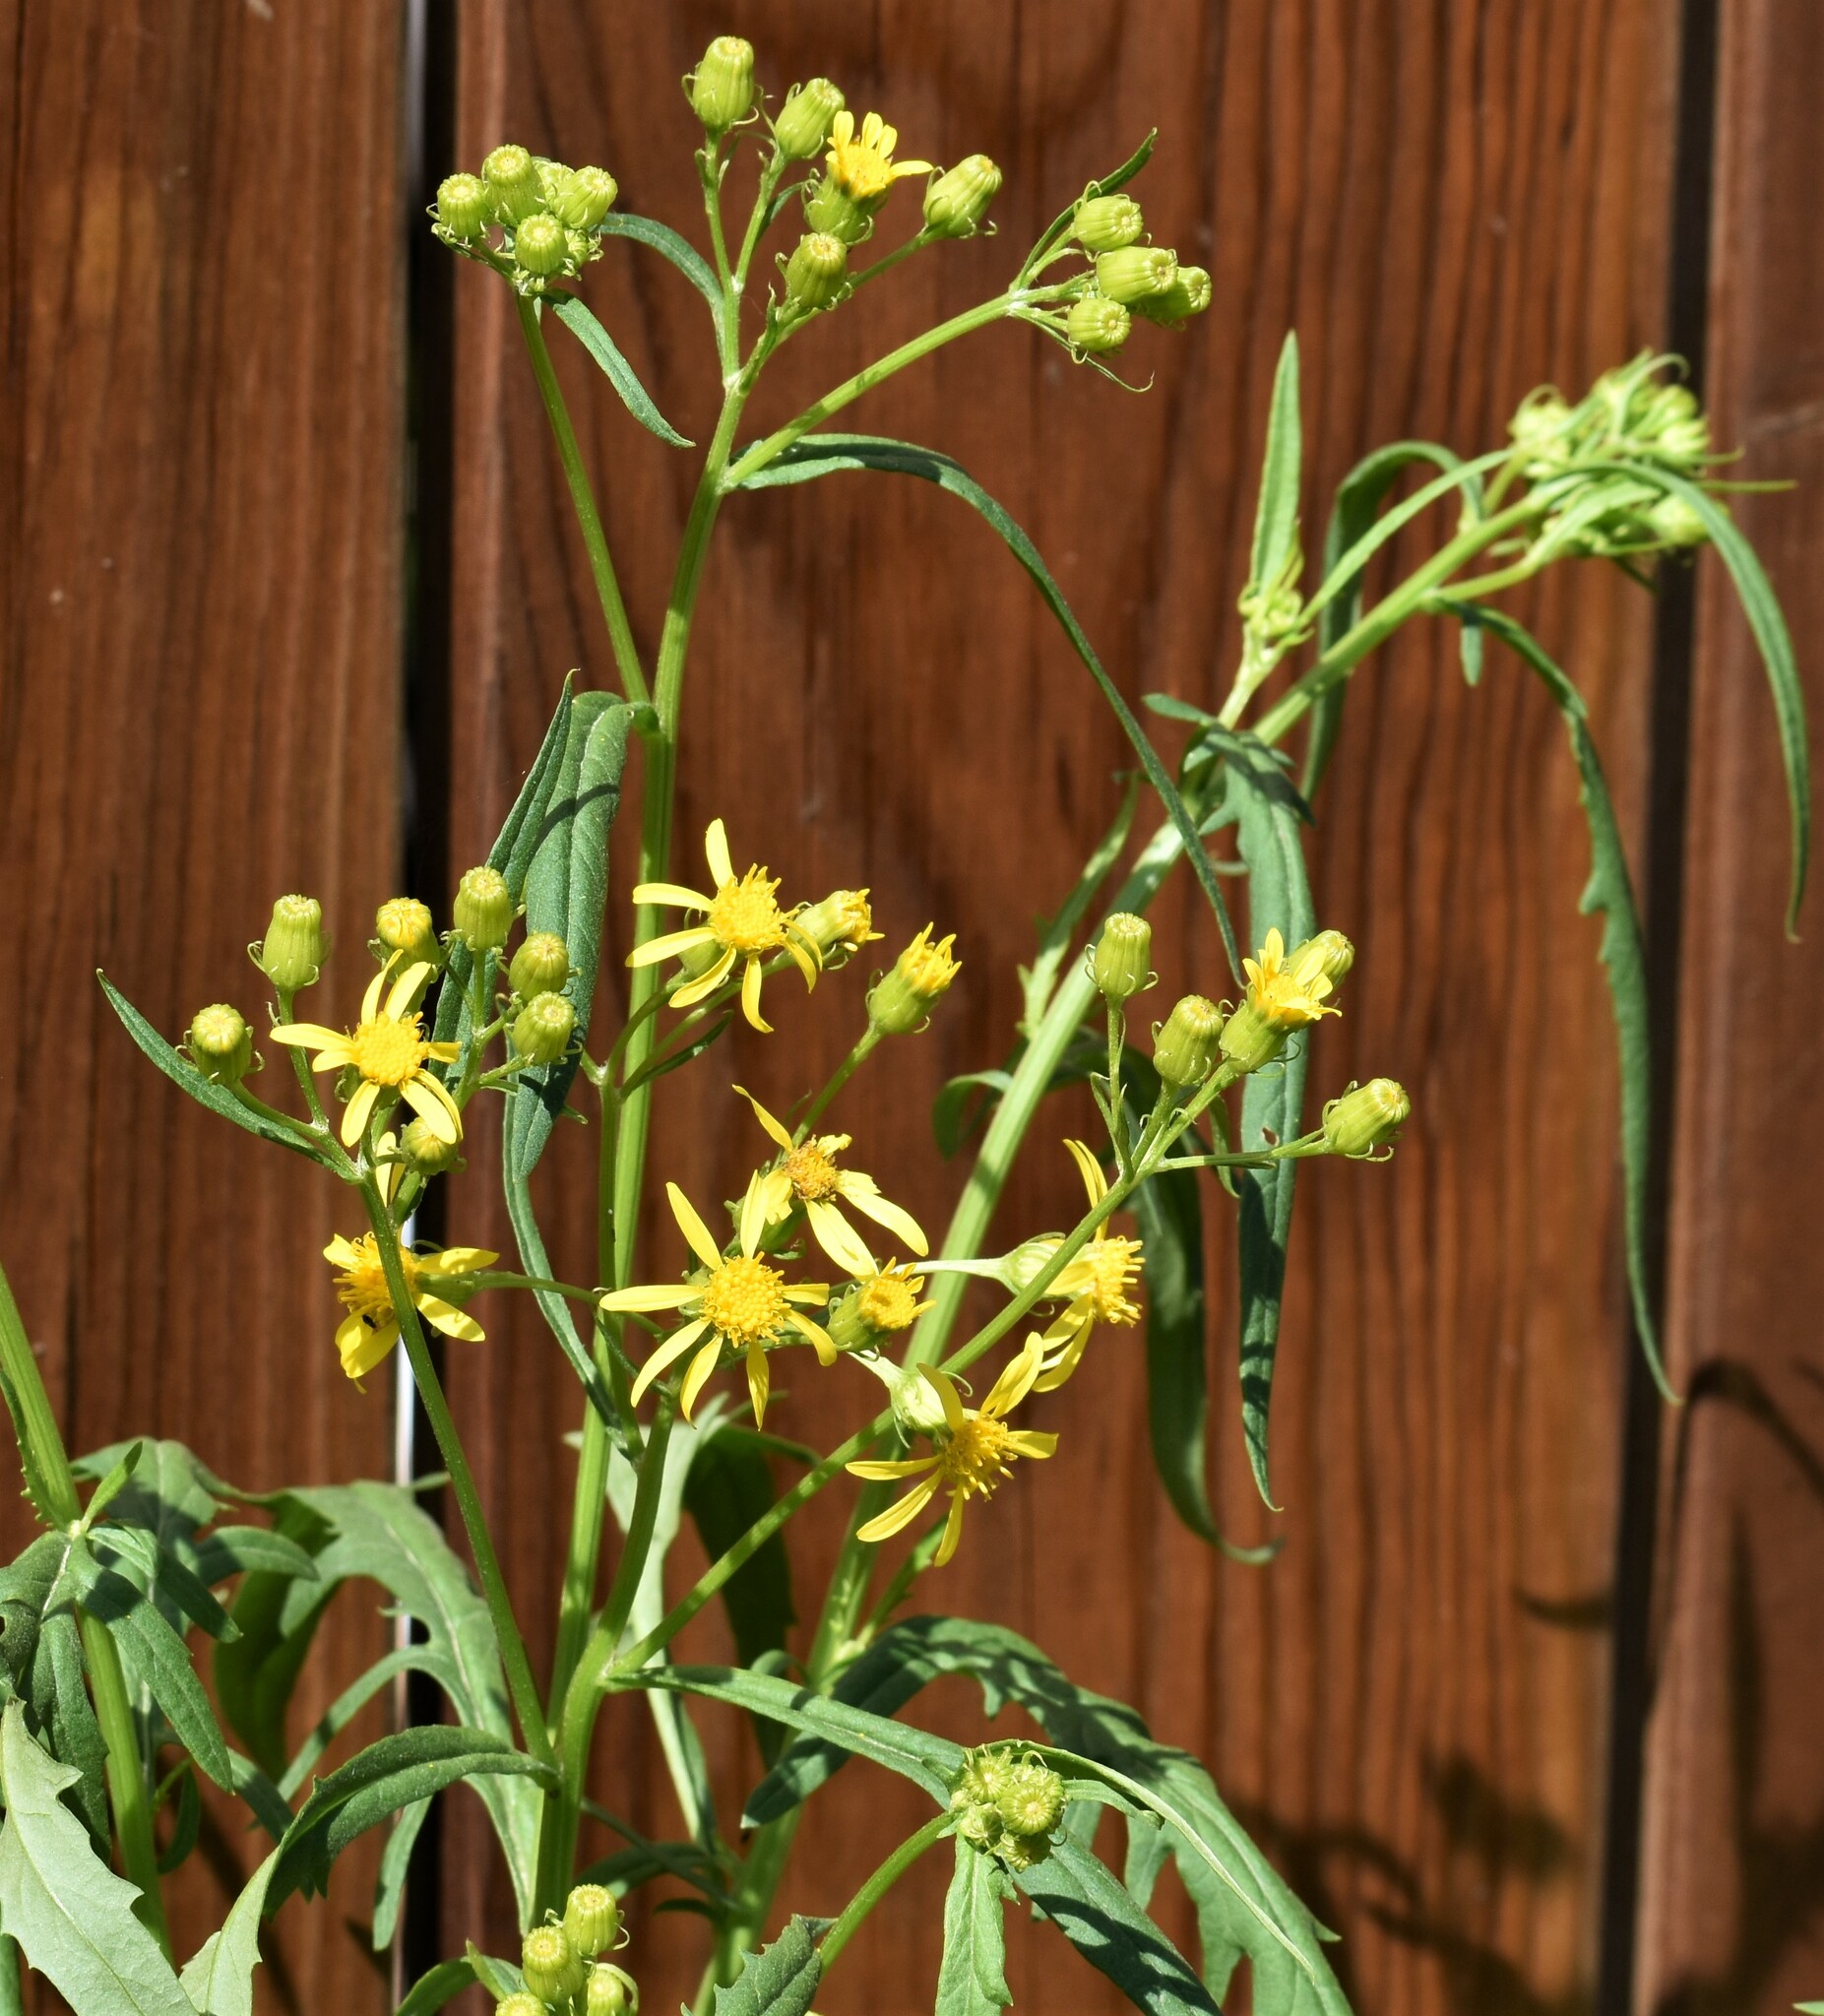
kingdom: Plantae
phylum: Tracheophyta
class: Magnoliopsida
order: Asterales
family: Asteraceae
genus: Senecio
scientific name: Senecio eremophilus
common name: Desert ragwort
